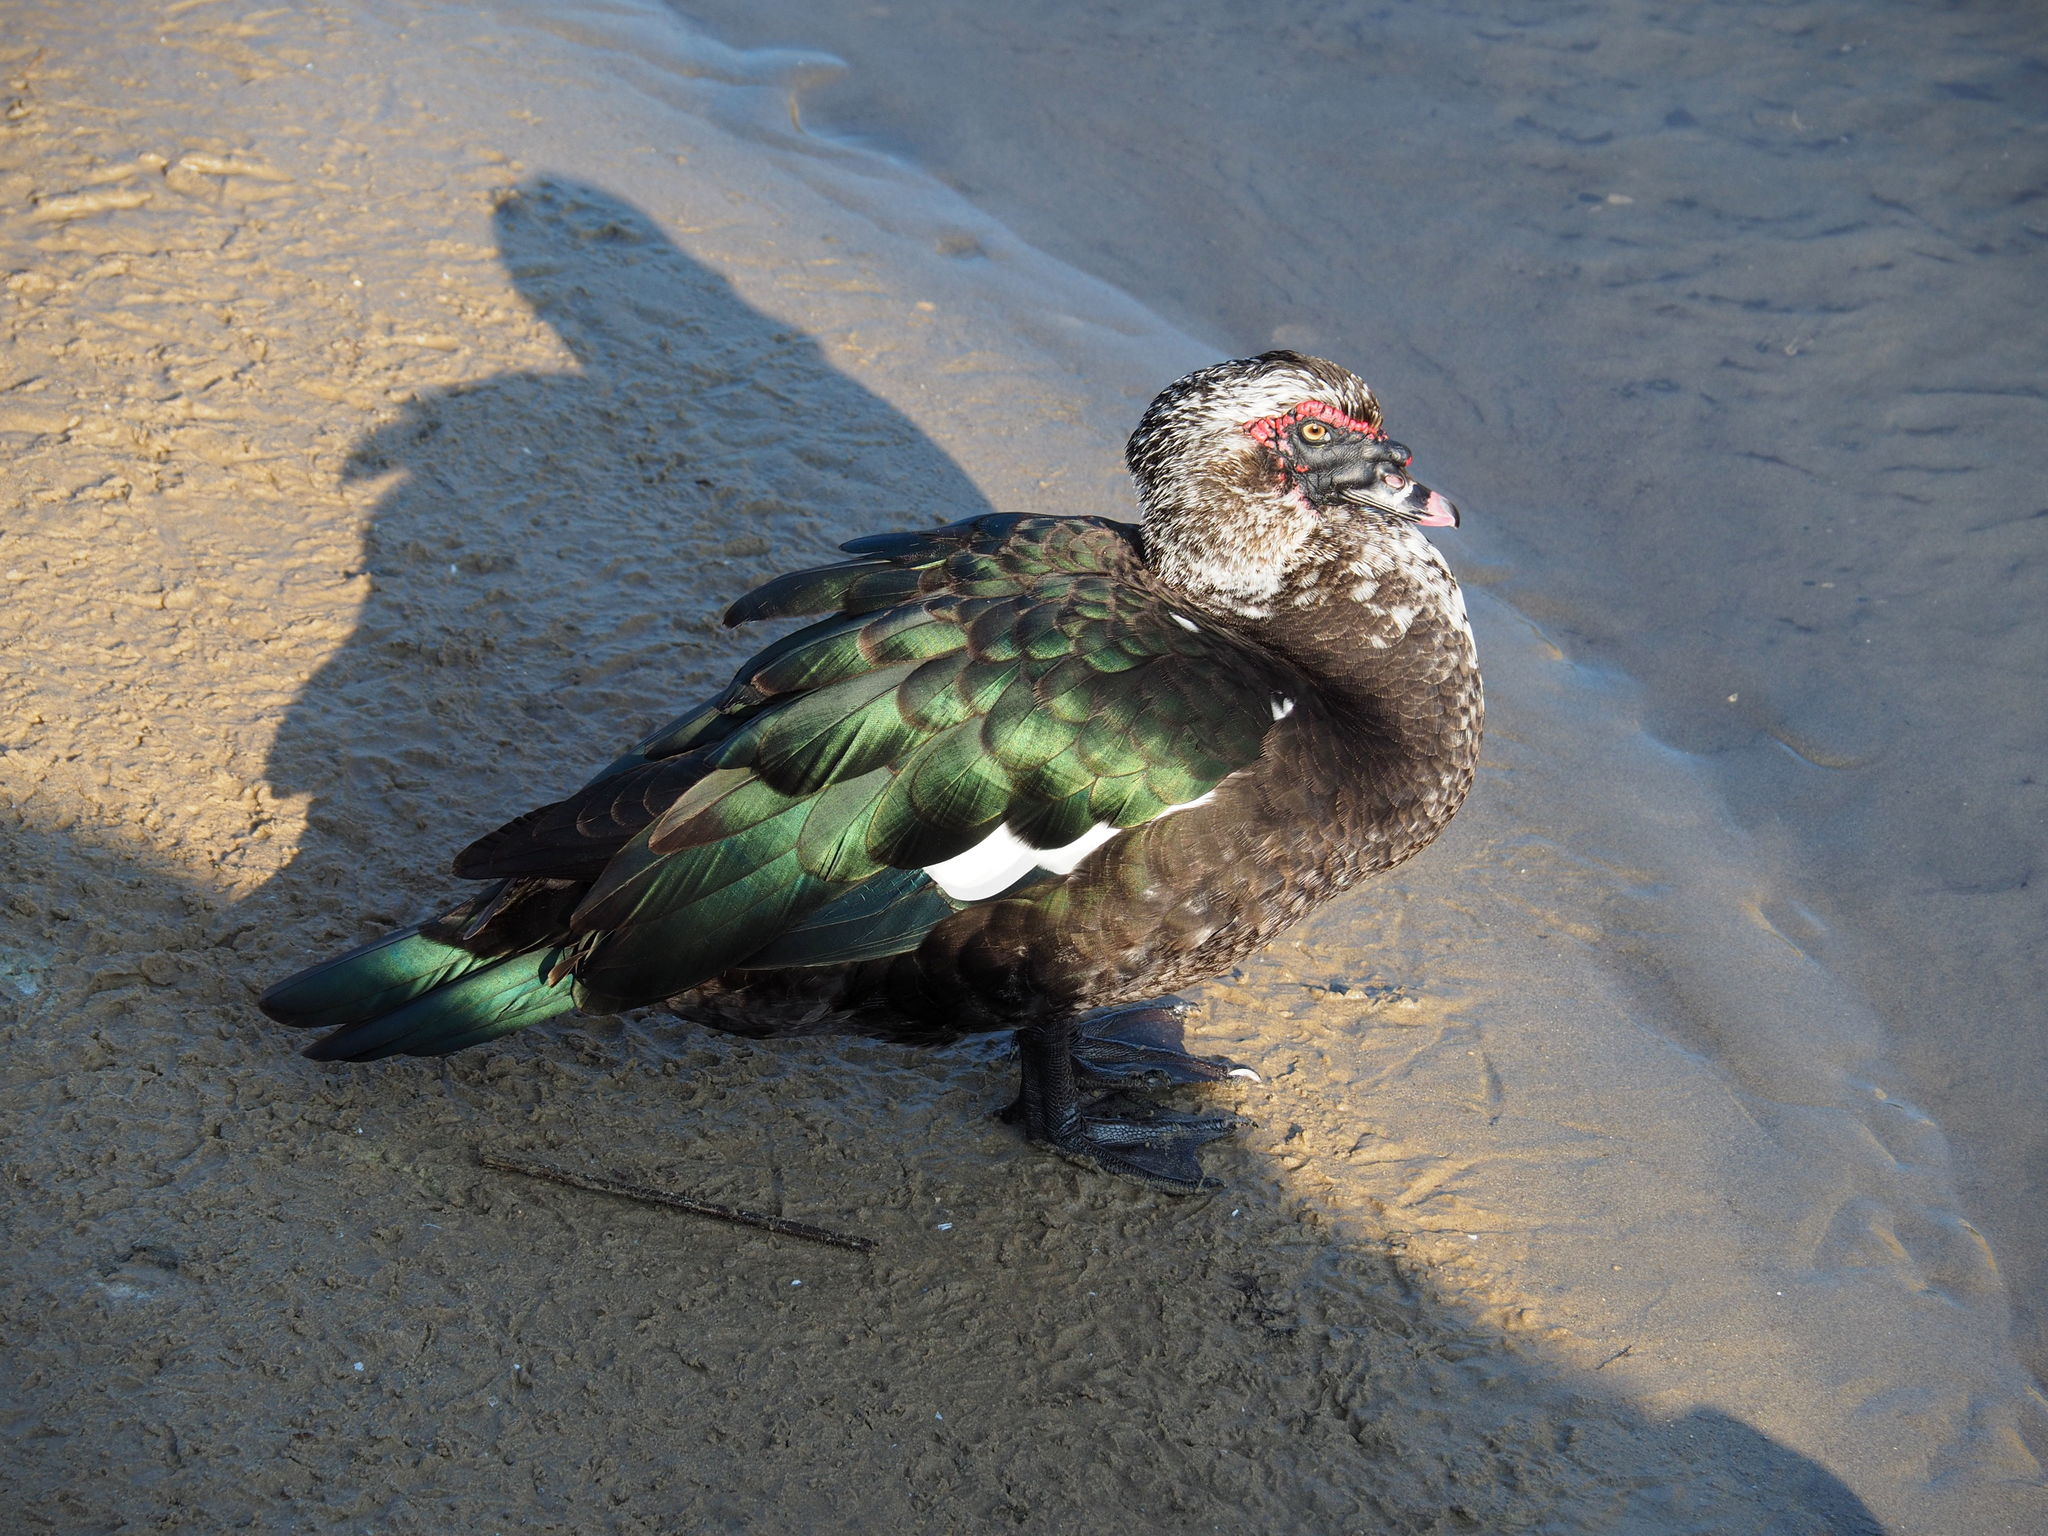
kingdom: Animalia
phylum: Chordata
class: Aves
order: Anseriformes
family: Anatidae
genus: Cairina
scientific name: Cairina moschata
